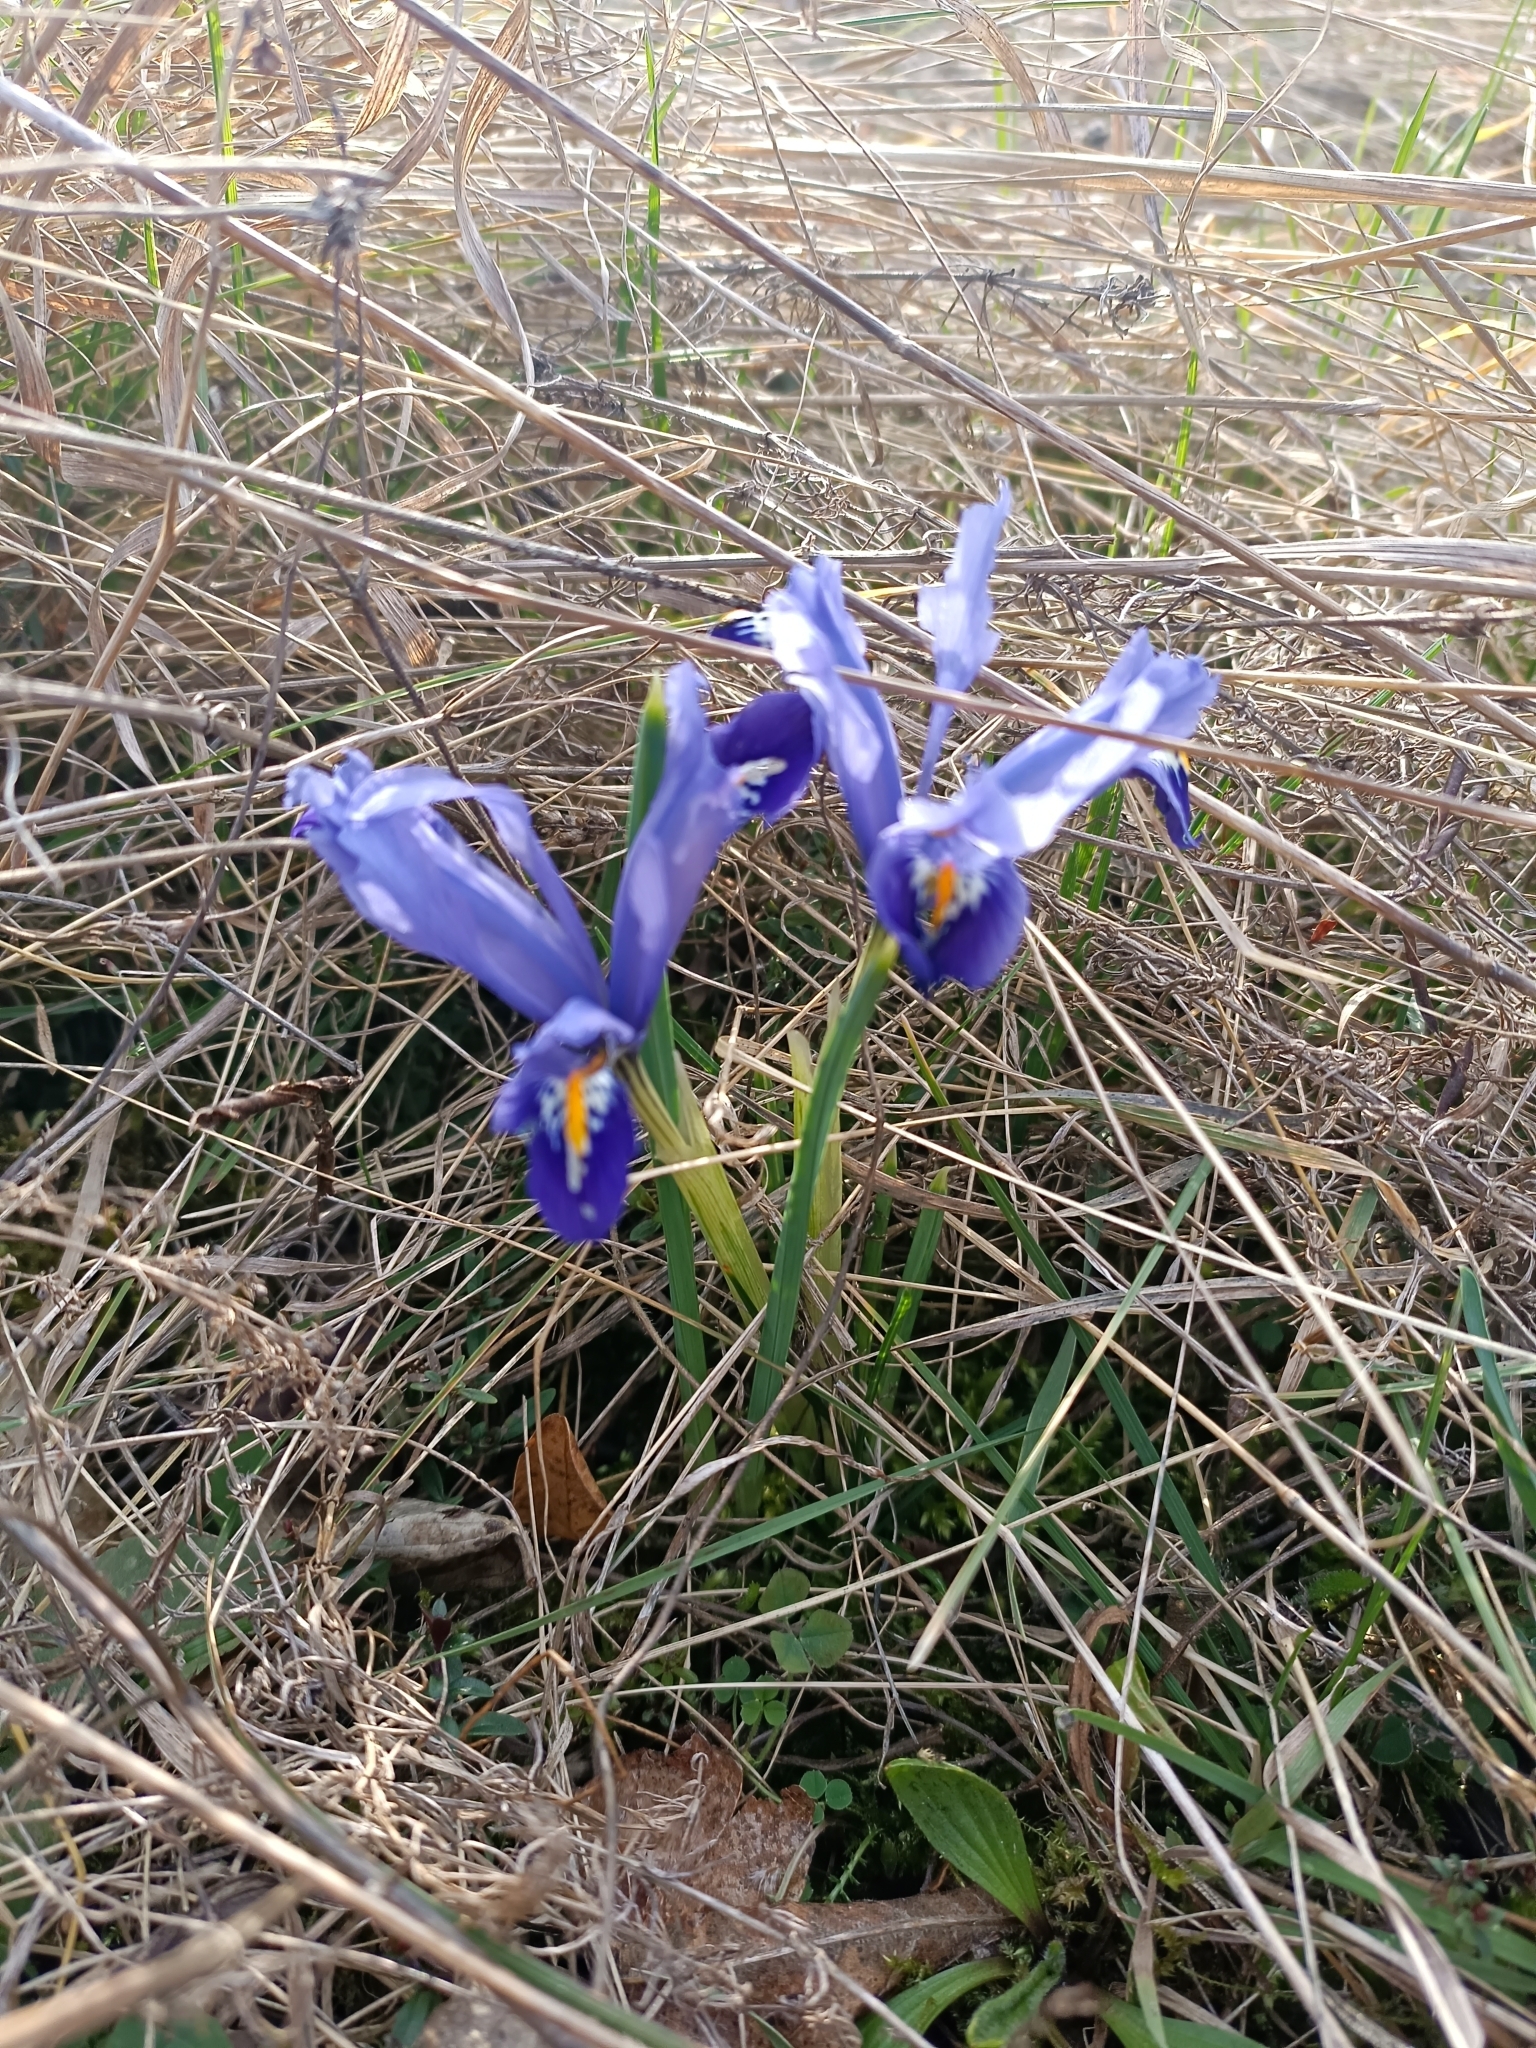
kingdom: Plantae
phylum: Tracheophyta
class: Liliopsida
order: Asparagales
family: Iridaceae
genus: Iris
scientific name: Iris reticulata
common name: Netted iris
